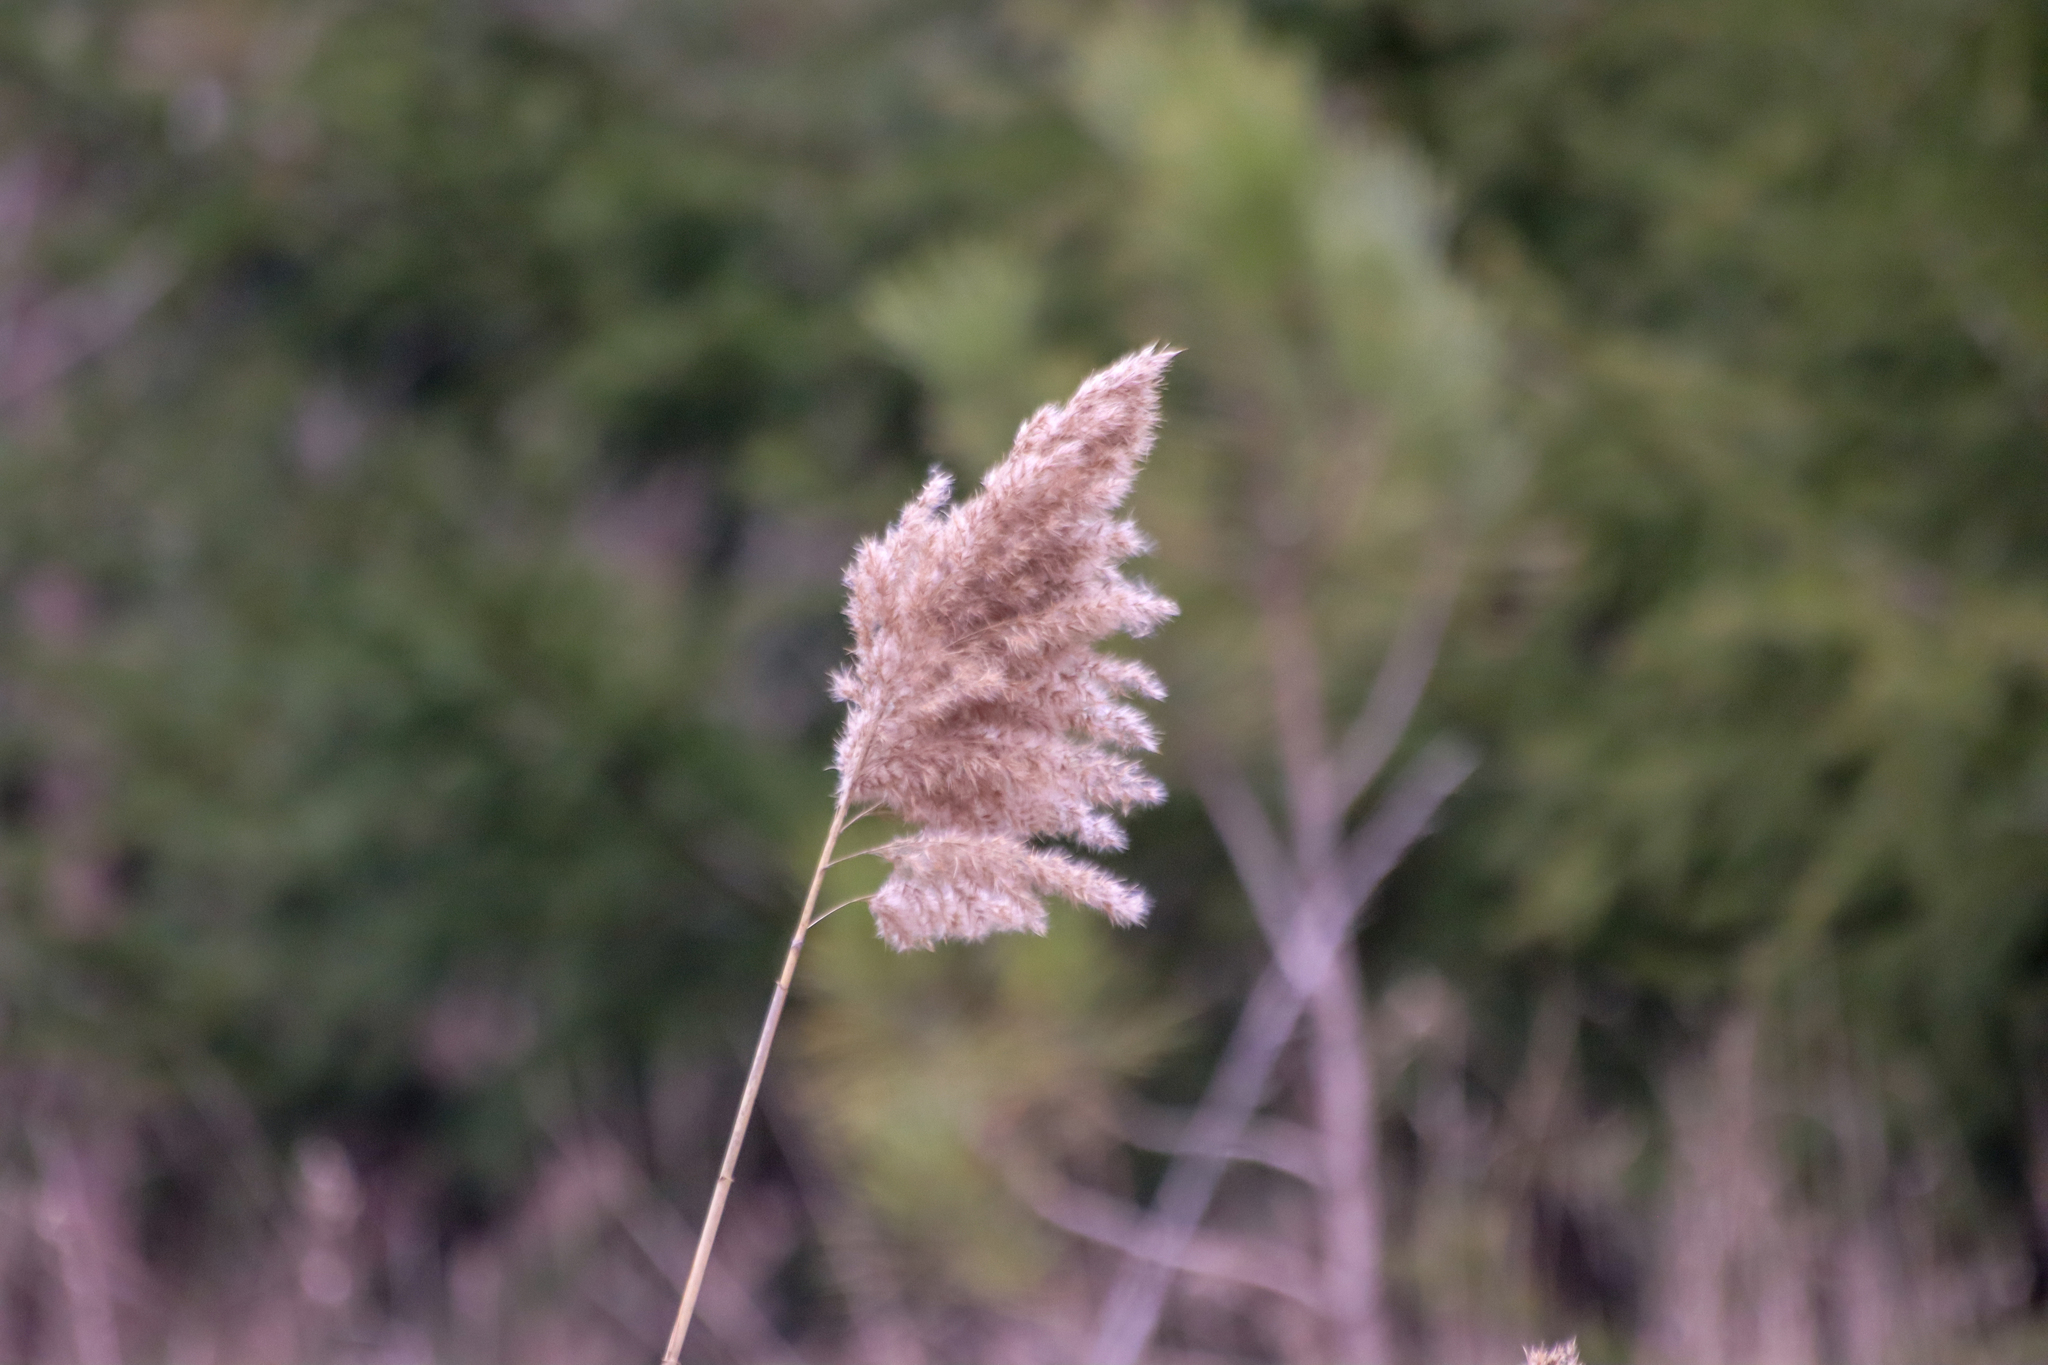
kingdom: Plantae
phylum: Tracheophyta
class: Liliopsida
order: Poales
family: Poaceae
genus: Phragmites
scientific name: Phragmites australis
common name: Common reed
